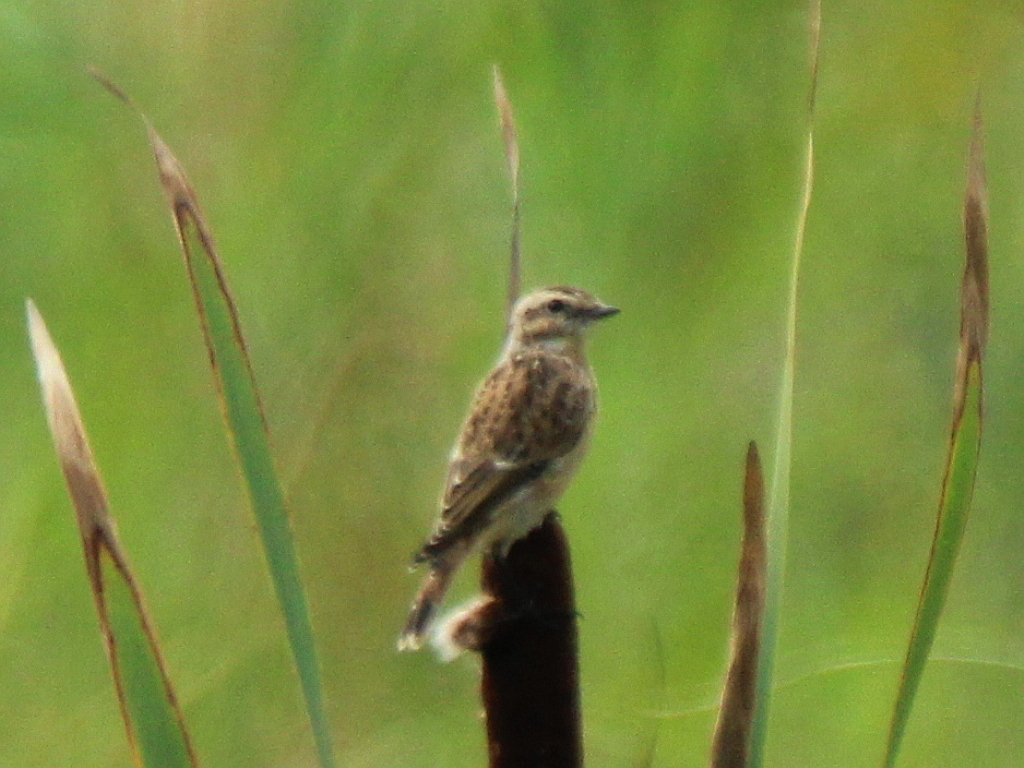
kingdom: Animalia
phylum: Chordata
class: Aves
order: Passeriformes
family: Muscicapidae
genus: Saxicola
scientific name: Saxicola rubetra
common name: Whinchat
